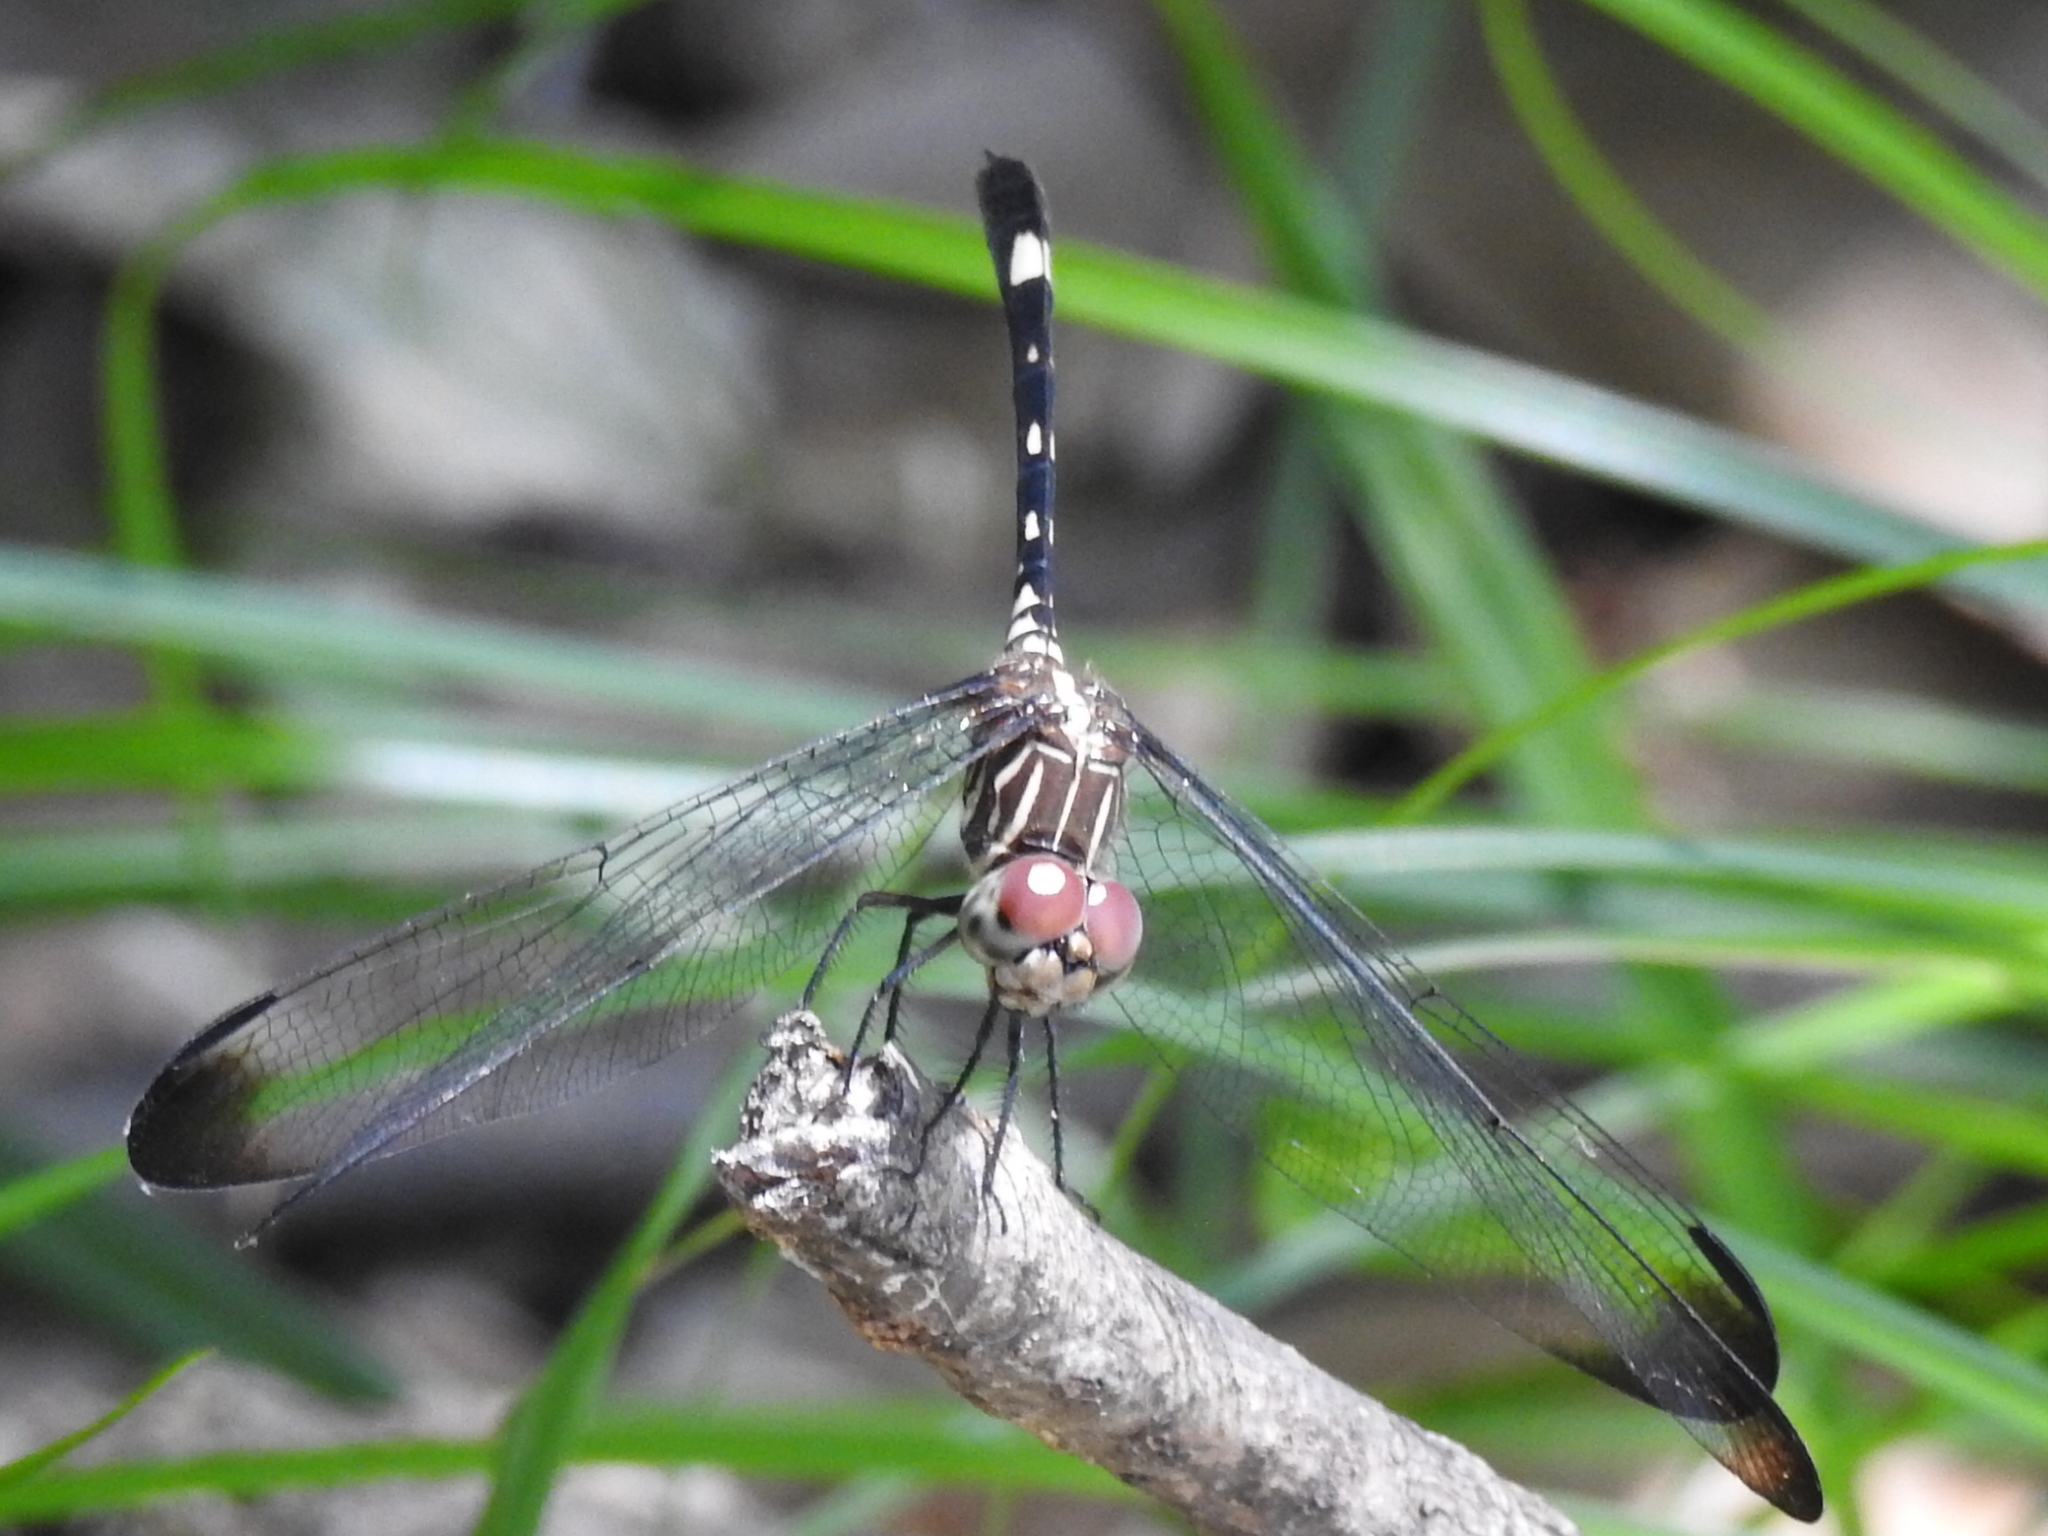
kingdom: Animalia
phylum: Arthropoda
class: Insecta
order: Odonata
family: Libellulidae
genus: Dythemis
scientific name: Dythemis velox
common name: Swift setwing
